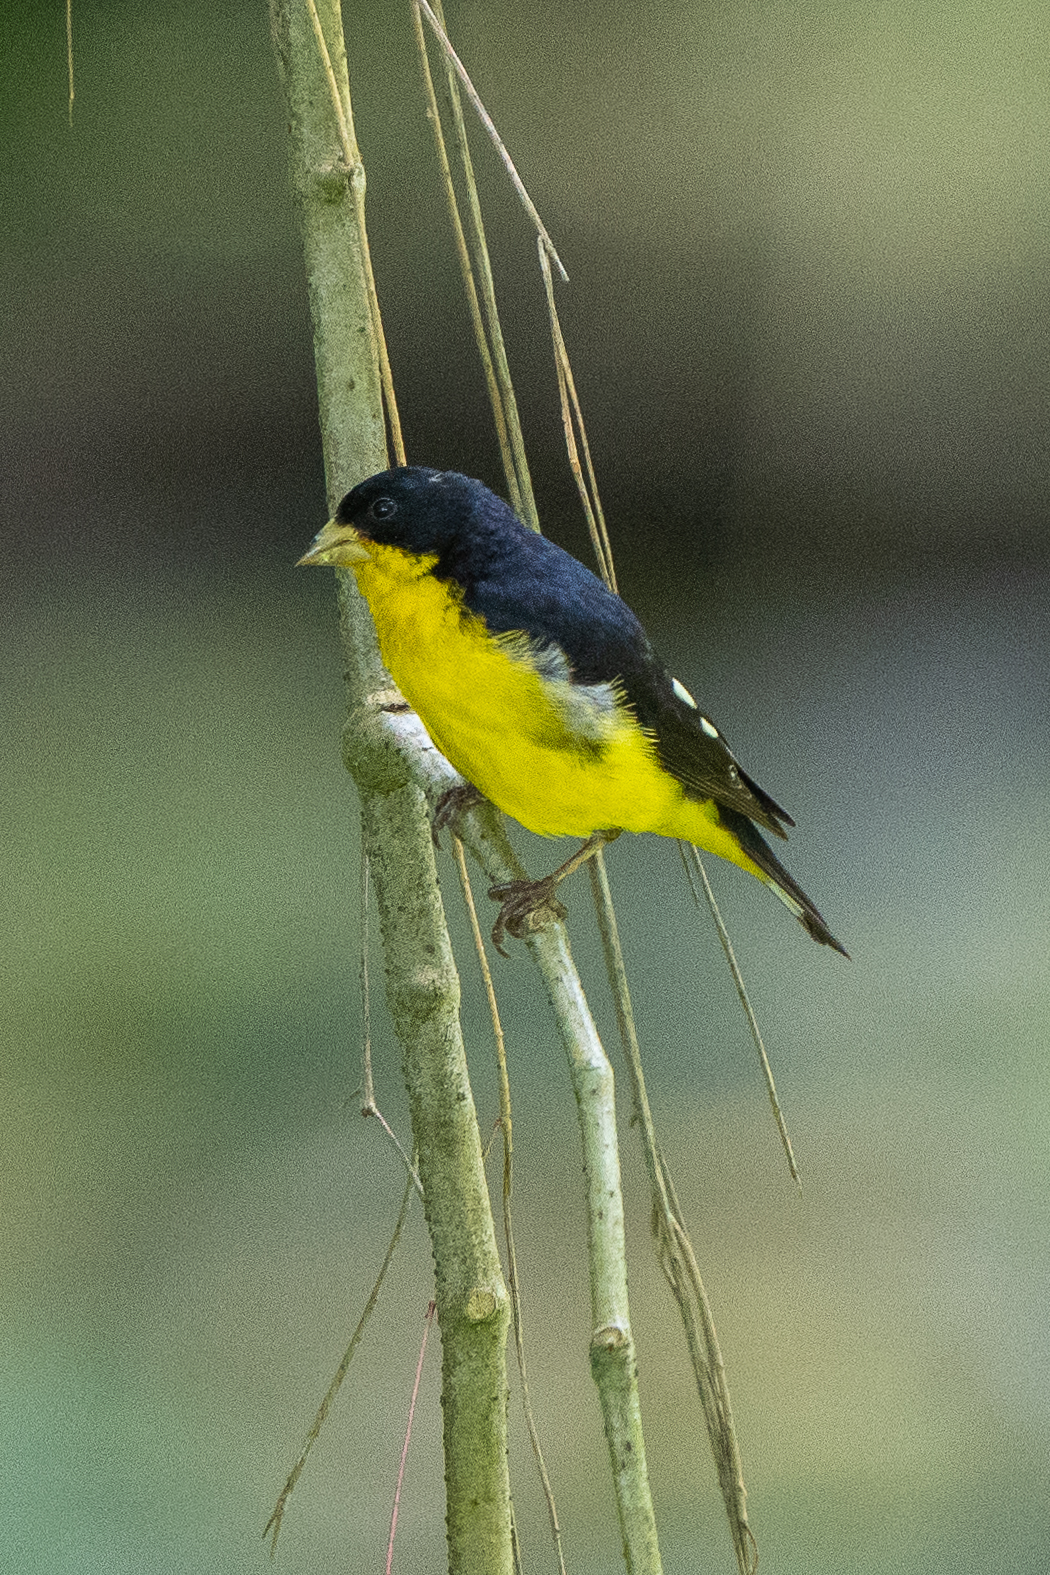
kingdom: Animalia
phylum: Chordata
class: Aves
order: Passeriformes
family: Fringillidae
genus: Spinus
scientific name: Spinus psaltria
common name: Lesser goldfinch
